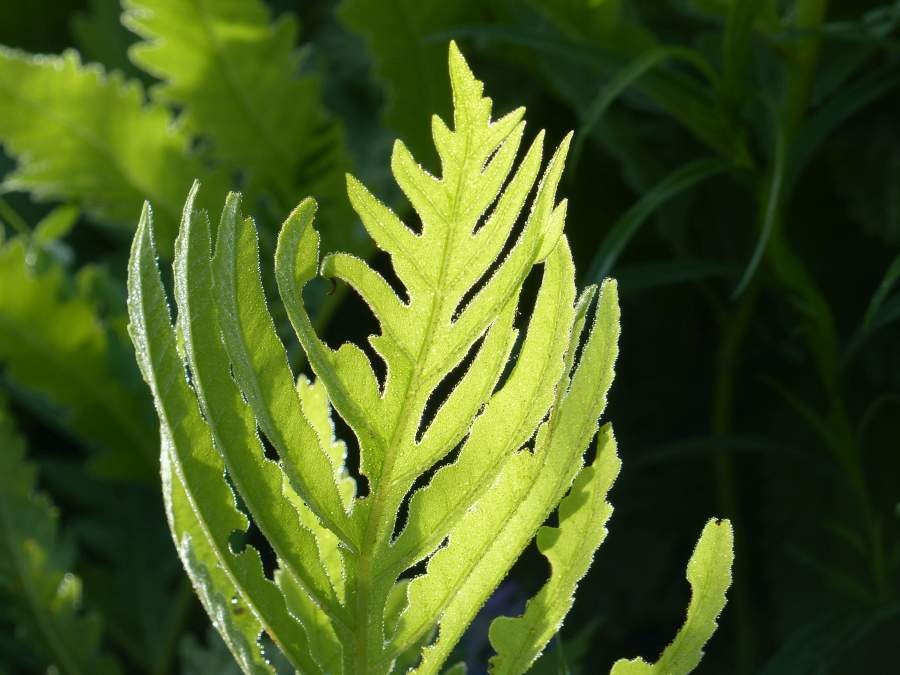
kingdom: Plantae
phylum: Tracheophyta
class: Polypodiopsida
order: Polypodiales
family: Onocleaceae
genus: Onoclea
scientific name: Onoclea sensibilis
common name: Sensitive fern
